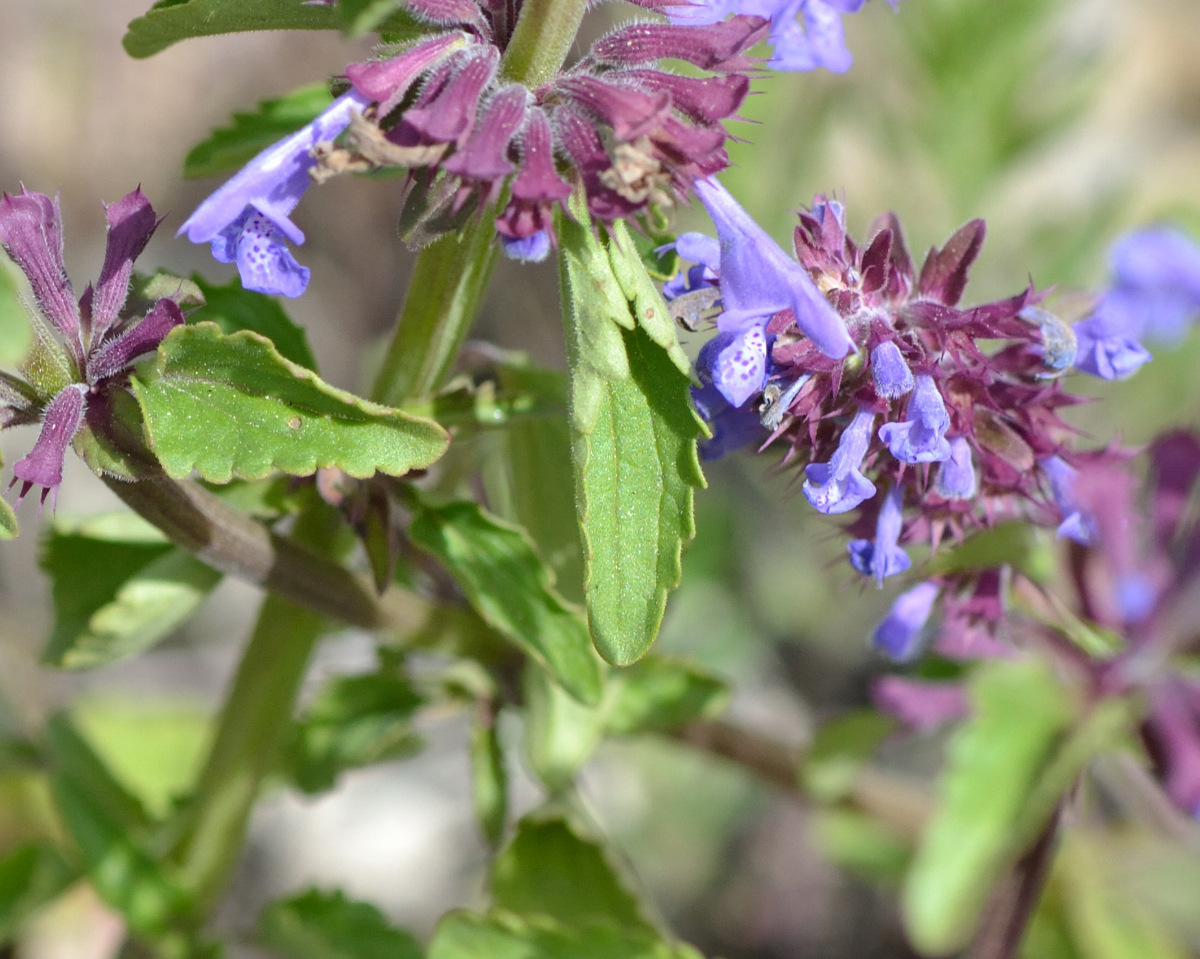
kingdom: Plantae
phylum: Tracheophyta
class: Magnoliopsida
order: Lamiales
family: Lamiaceae
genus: Dracocephalum
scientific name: Dracocephalum nutans
